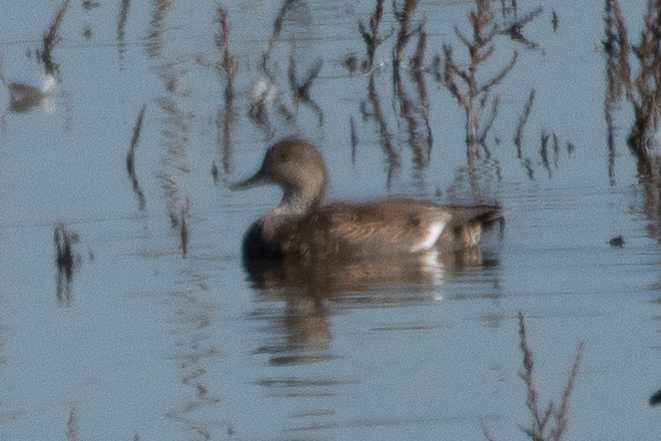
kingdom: Animalia
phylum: Chordata
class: Aves
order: Anseriformes
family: Anatidae
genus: Mareca
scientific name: Mareca strepera
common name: Gadwall
